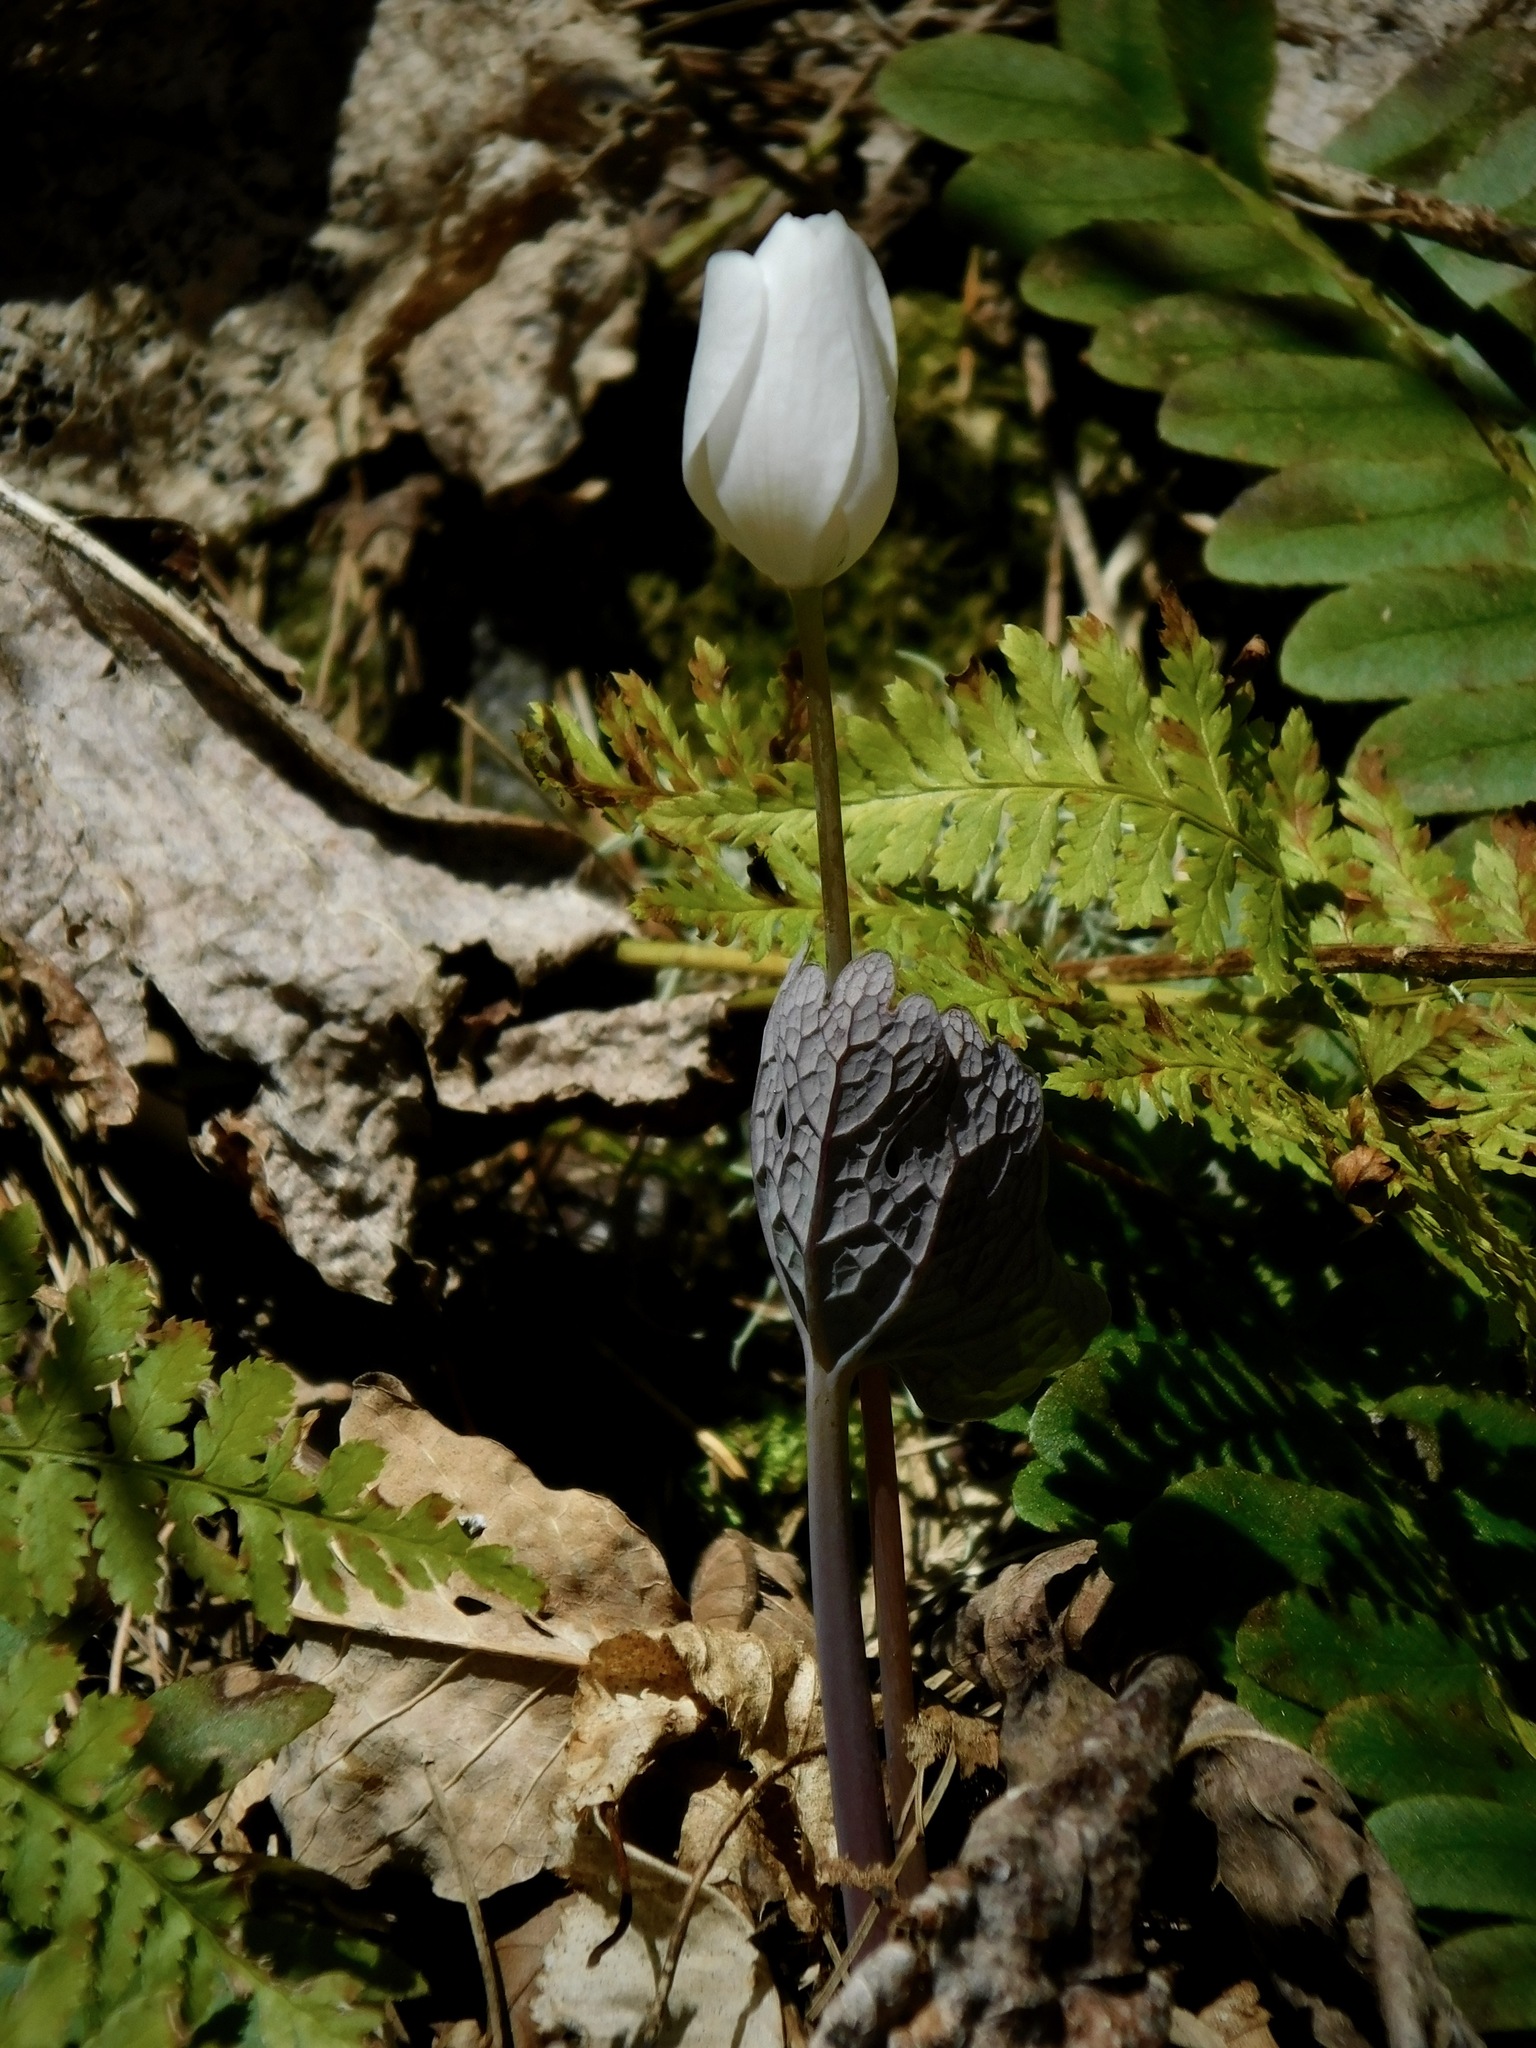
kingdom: Plantae
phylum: Tracheophyta
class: Magnoliopsida
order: Ranunculales
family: Papaveraceae
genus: Sanguinaria
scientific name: Sanguinaria canadensis
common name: Bloodroot
